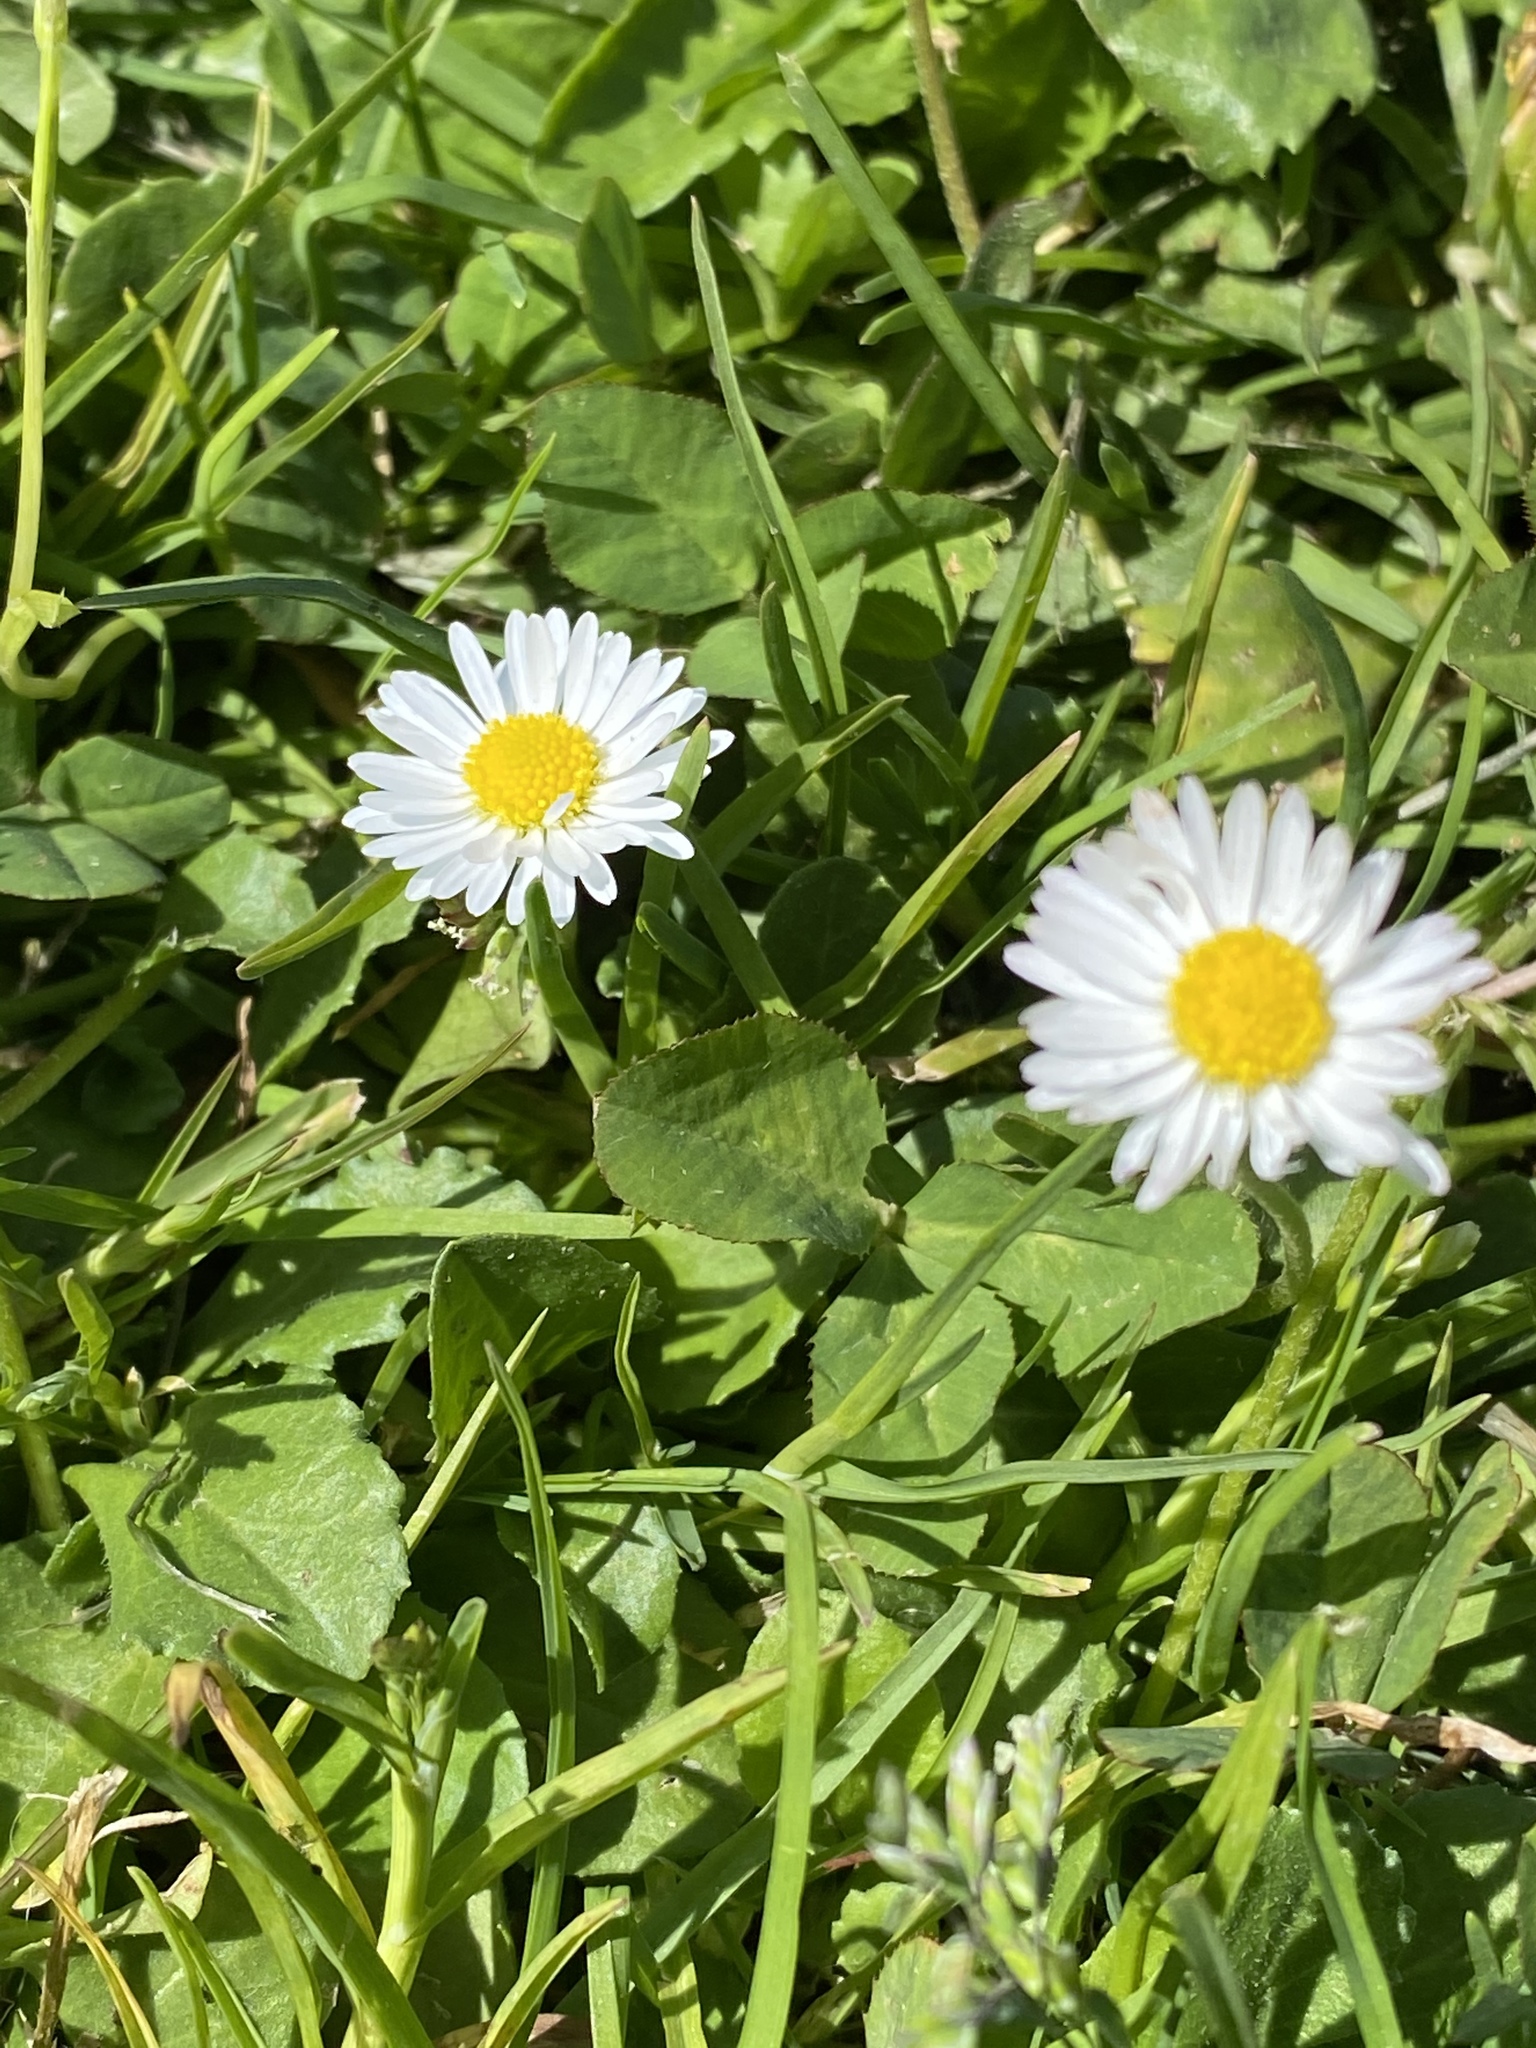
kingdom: Plantae
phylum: Tracheophyta
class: Magnoliopsida
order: Asterales
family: Asteraceae
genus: Bellis
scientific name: Bellis perennis
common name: Lawndaisy
